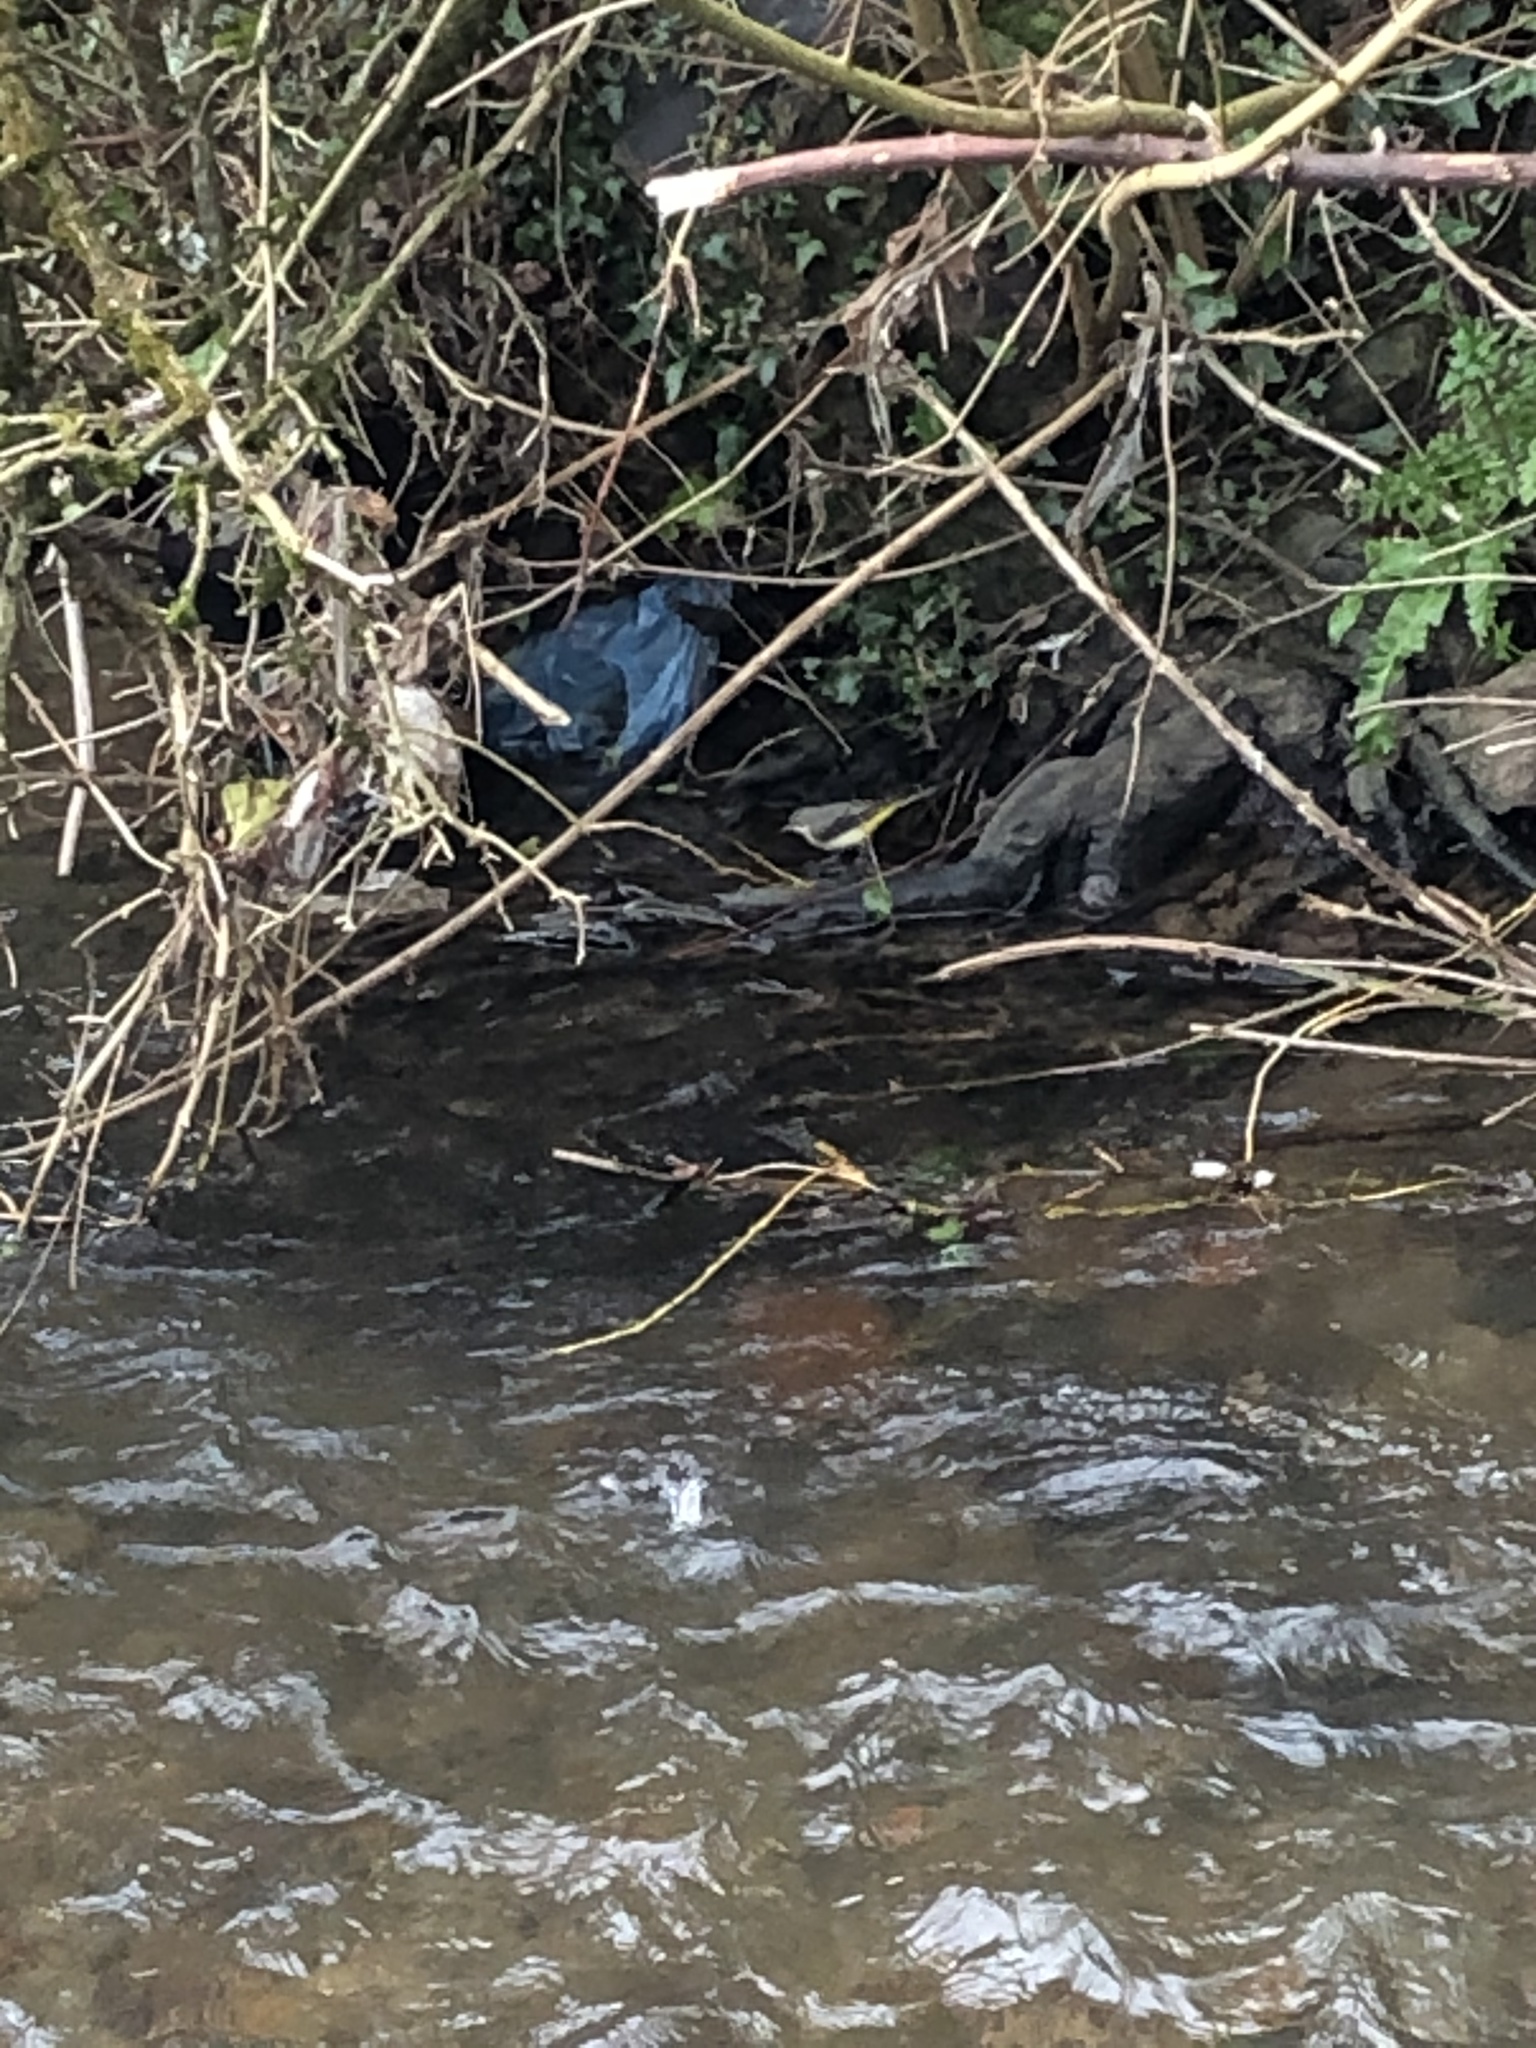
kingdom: Animalia
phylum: Chordata
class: Aves
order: Passeriformes
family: Motacillidae
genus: Motacilla
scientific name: Motacilla cinerea
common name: Grey wagtail
